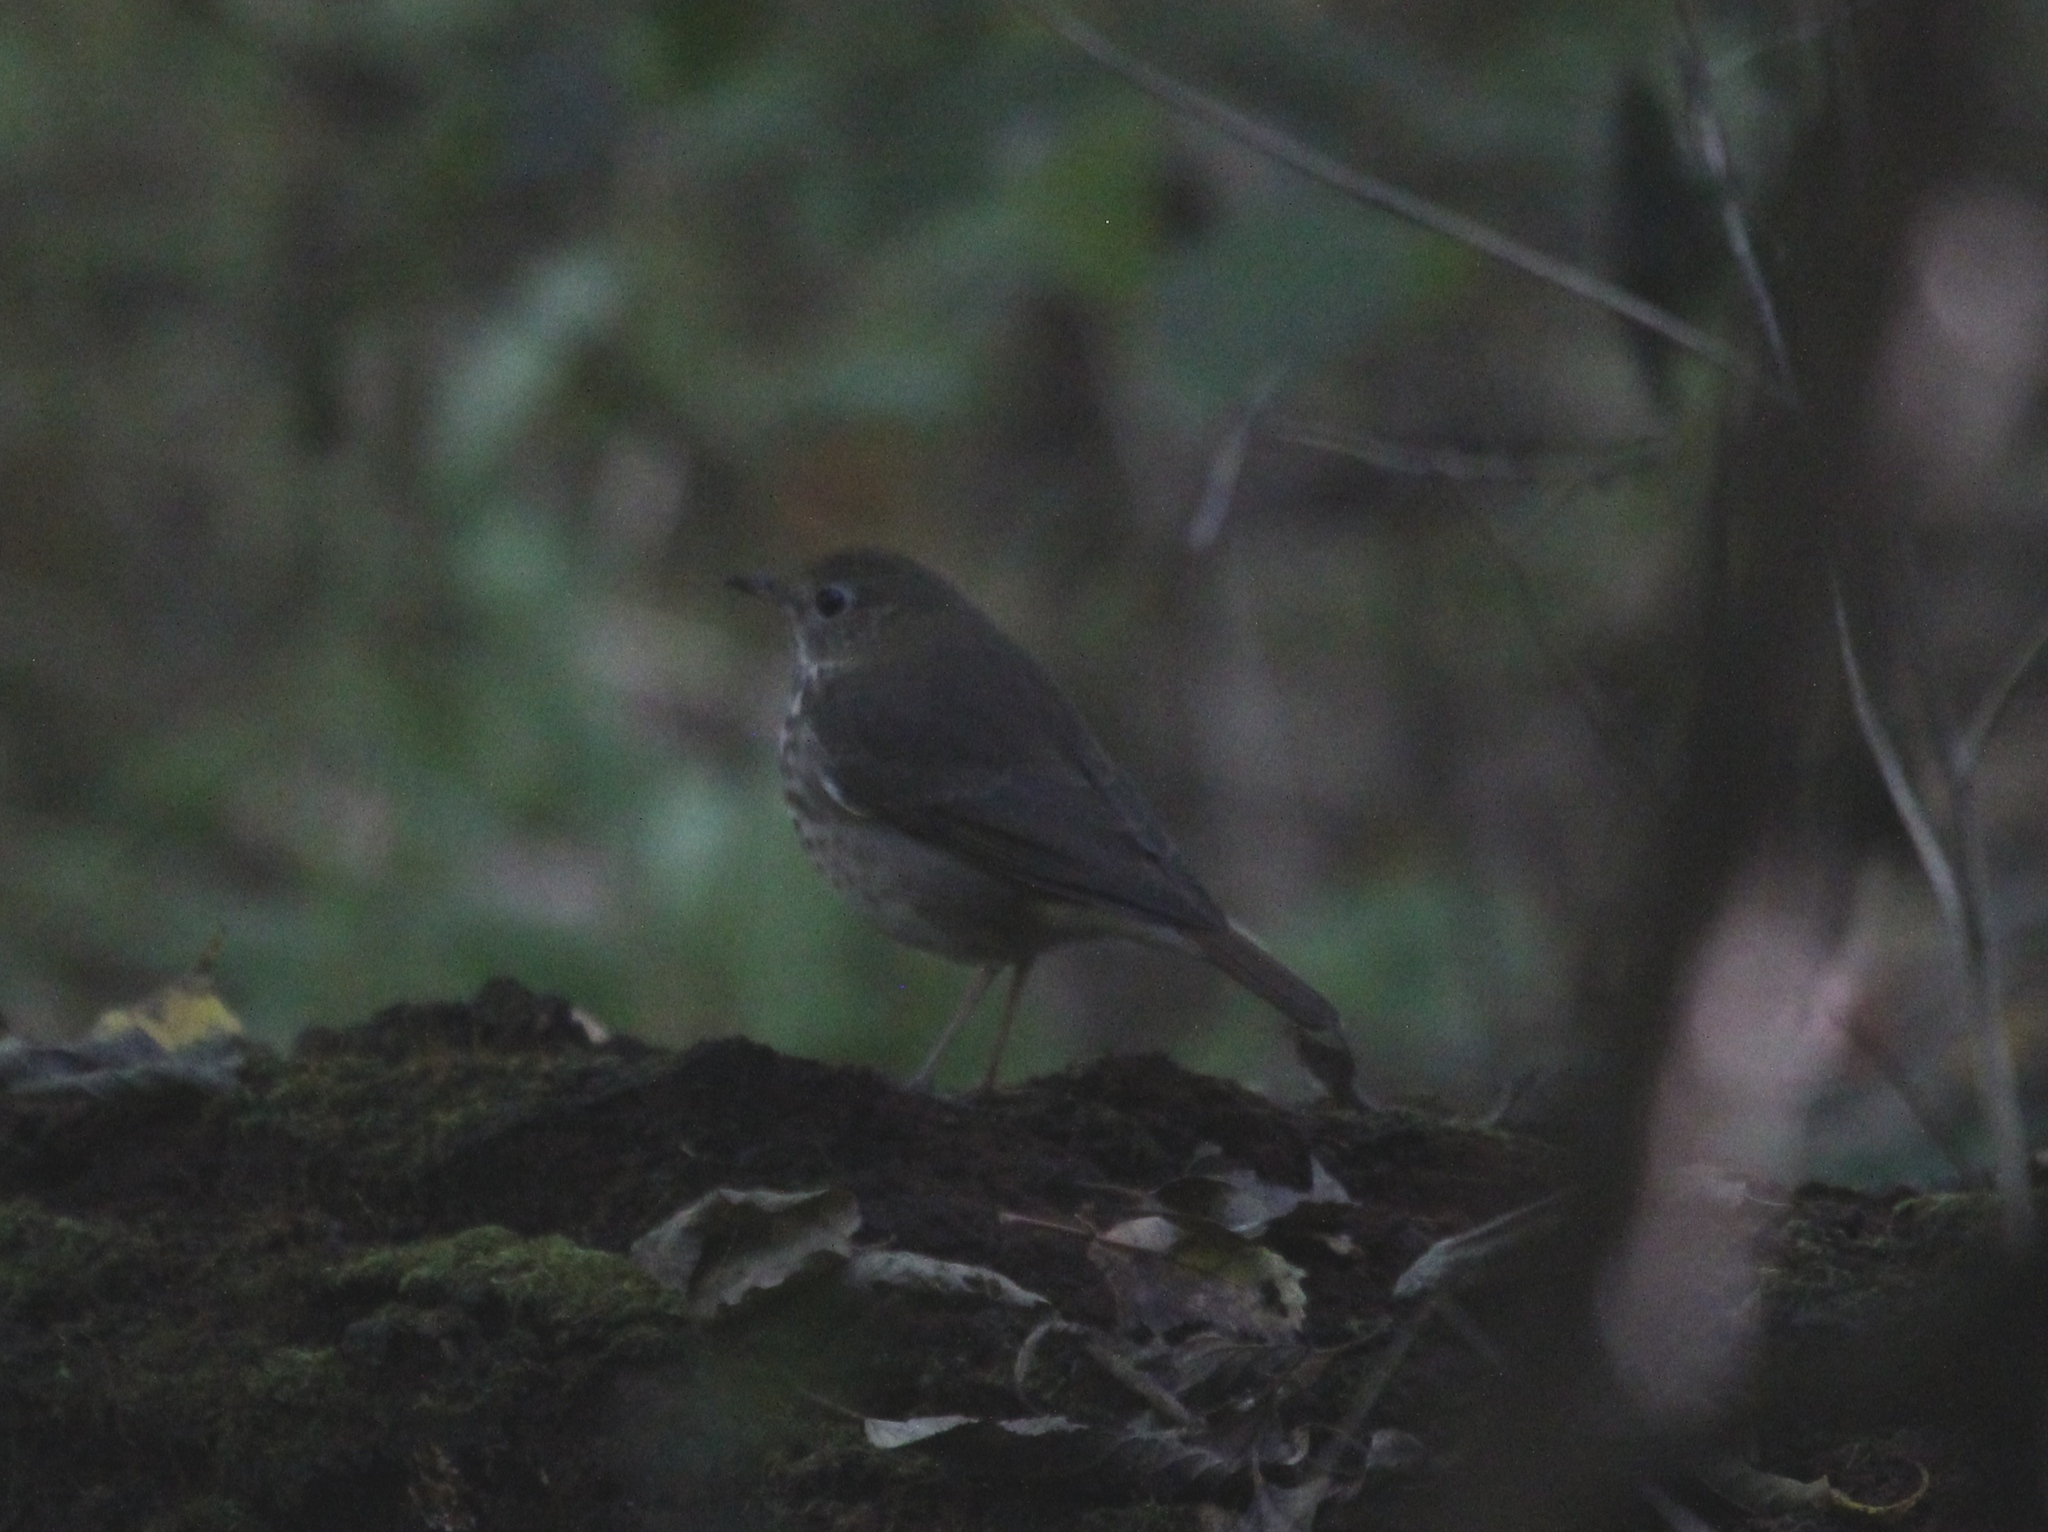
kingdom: Animalia
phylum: Chordata
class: Aves
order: Passeriformes
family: Turdidae
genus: Catharus
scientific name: Catharus guttatus
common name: Hermit thrush
